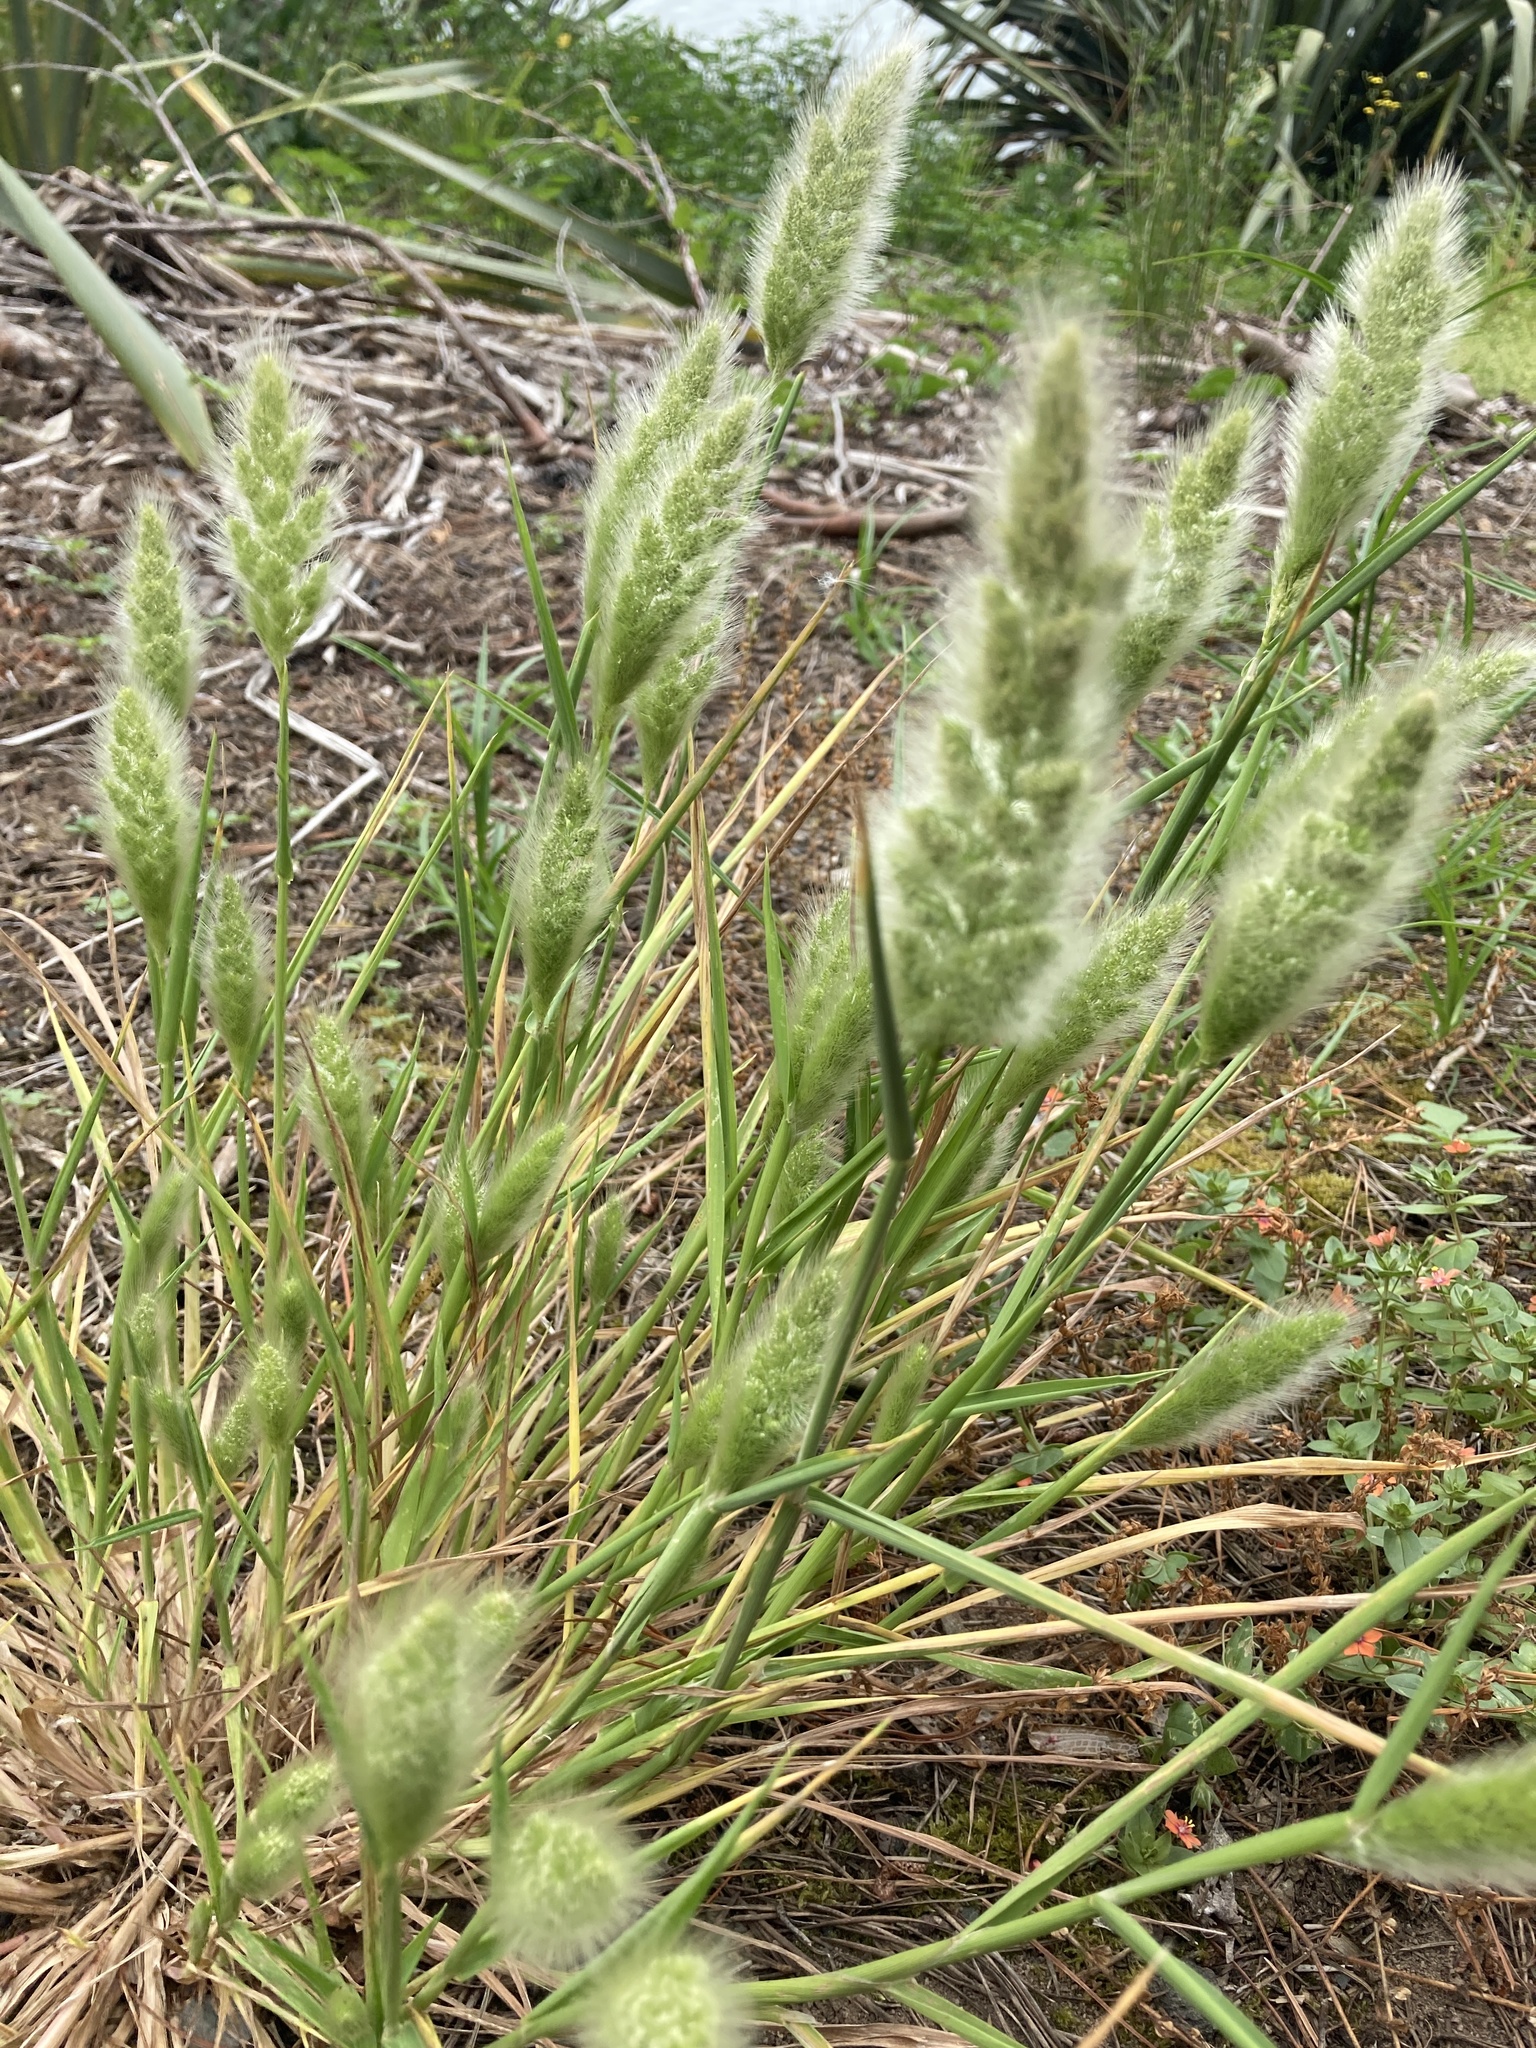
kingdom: Plantae
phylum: Tracheophyta
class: Liliopsida
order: Poales
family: Poaceae
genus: Polypogon
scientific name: Polypogon monspeliensis
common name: Annual rabbitsfoot grass
